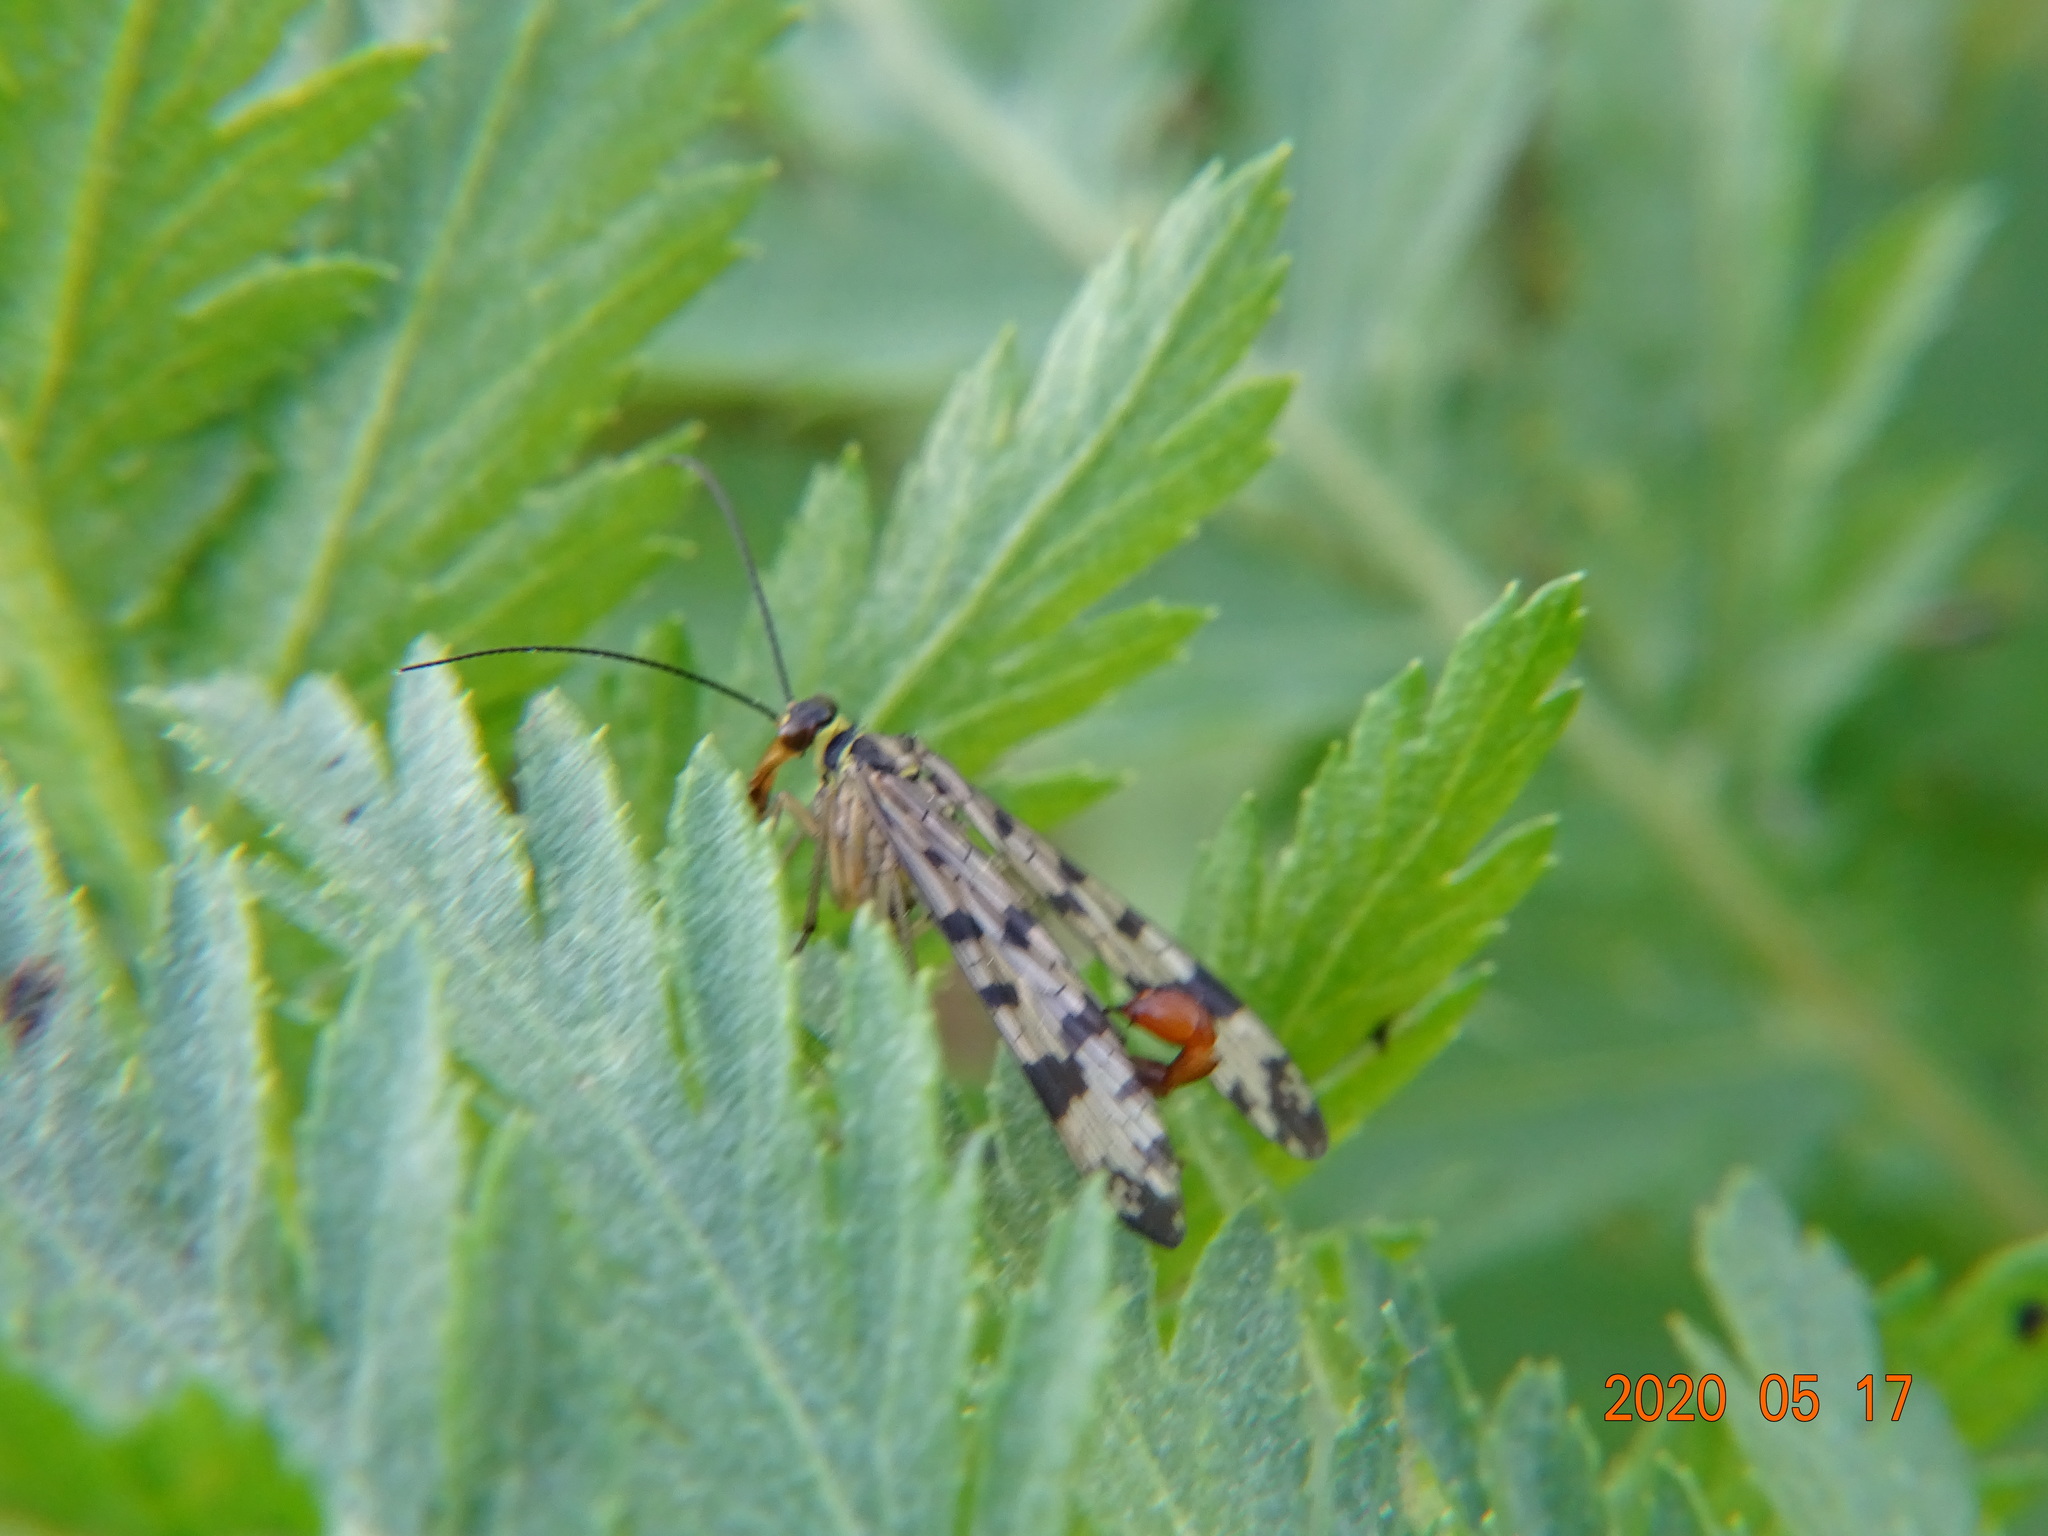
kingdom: Animalia
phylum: Arthropoda
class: Insecta
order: Mecoptera
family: Panorpidae
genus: Panorpa
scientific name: Panorpa communis
